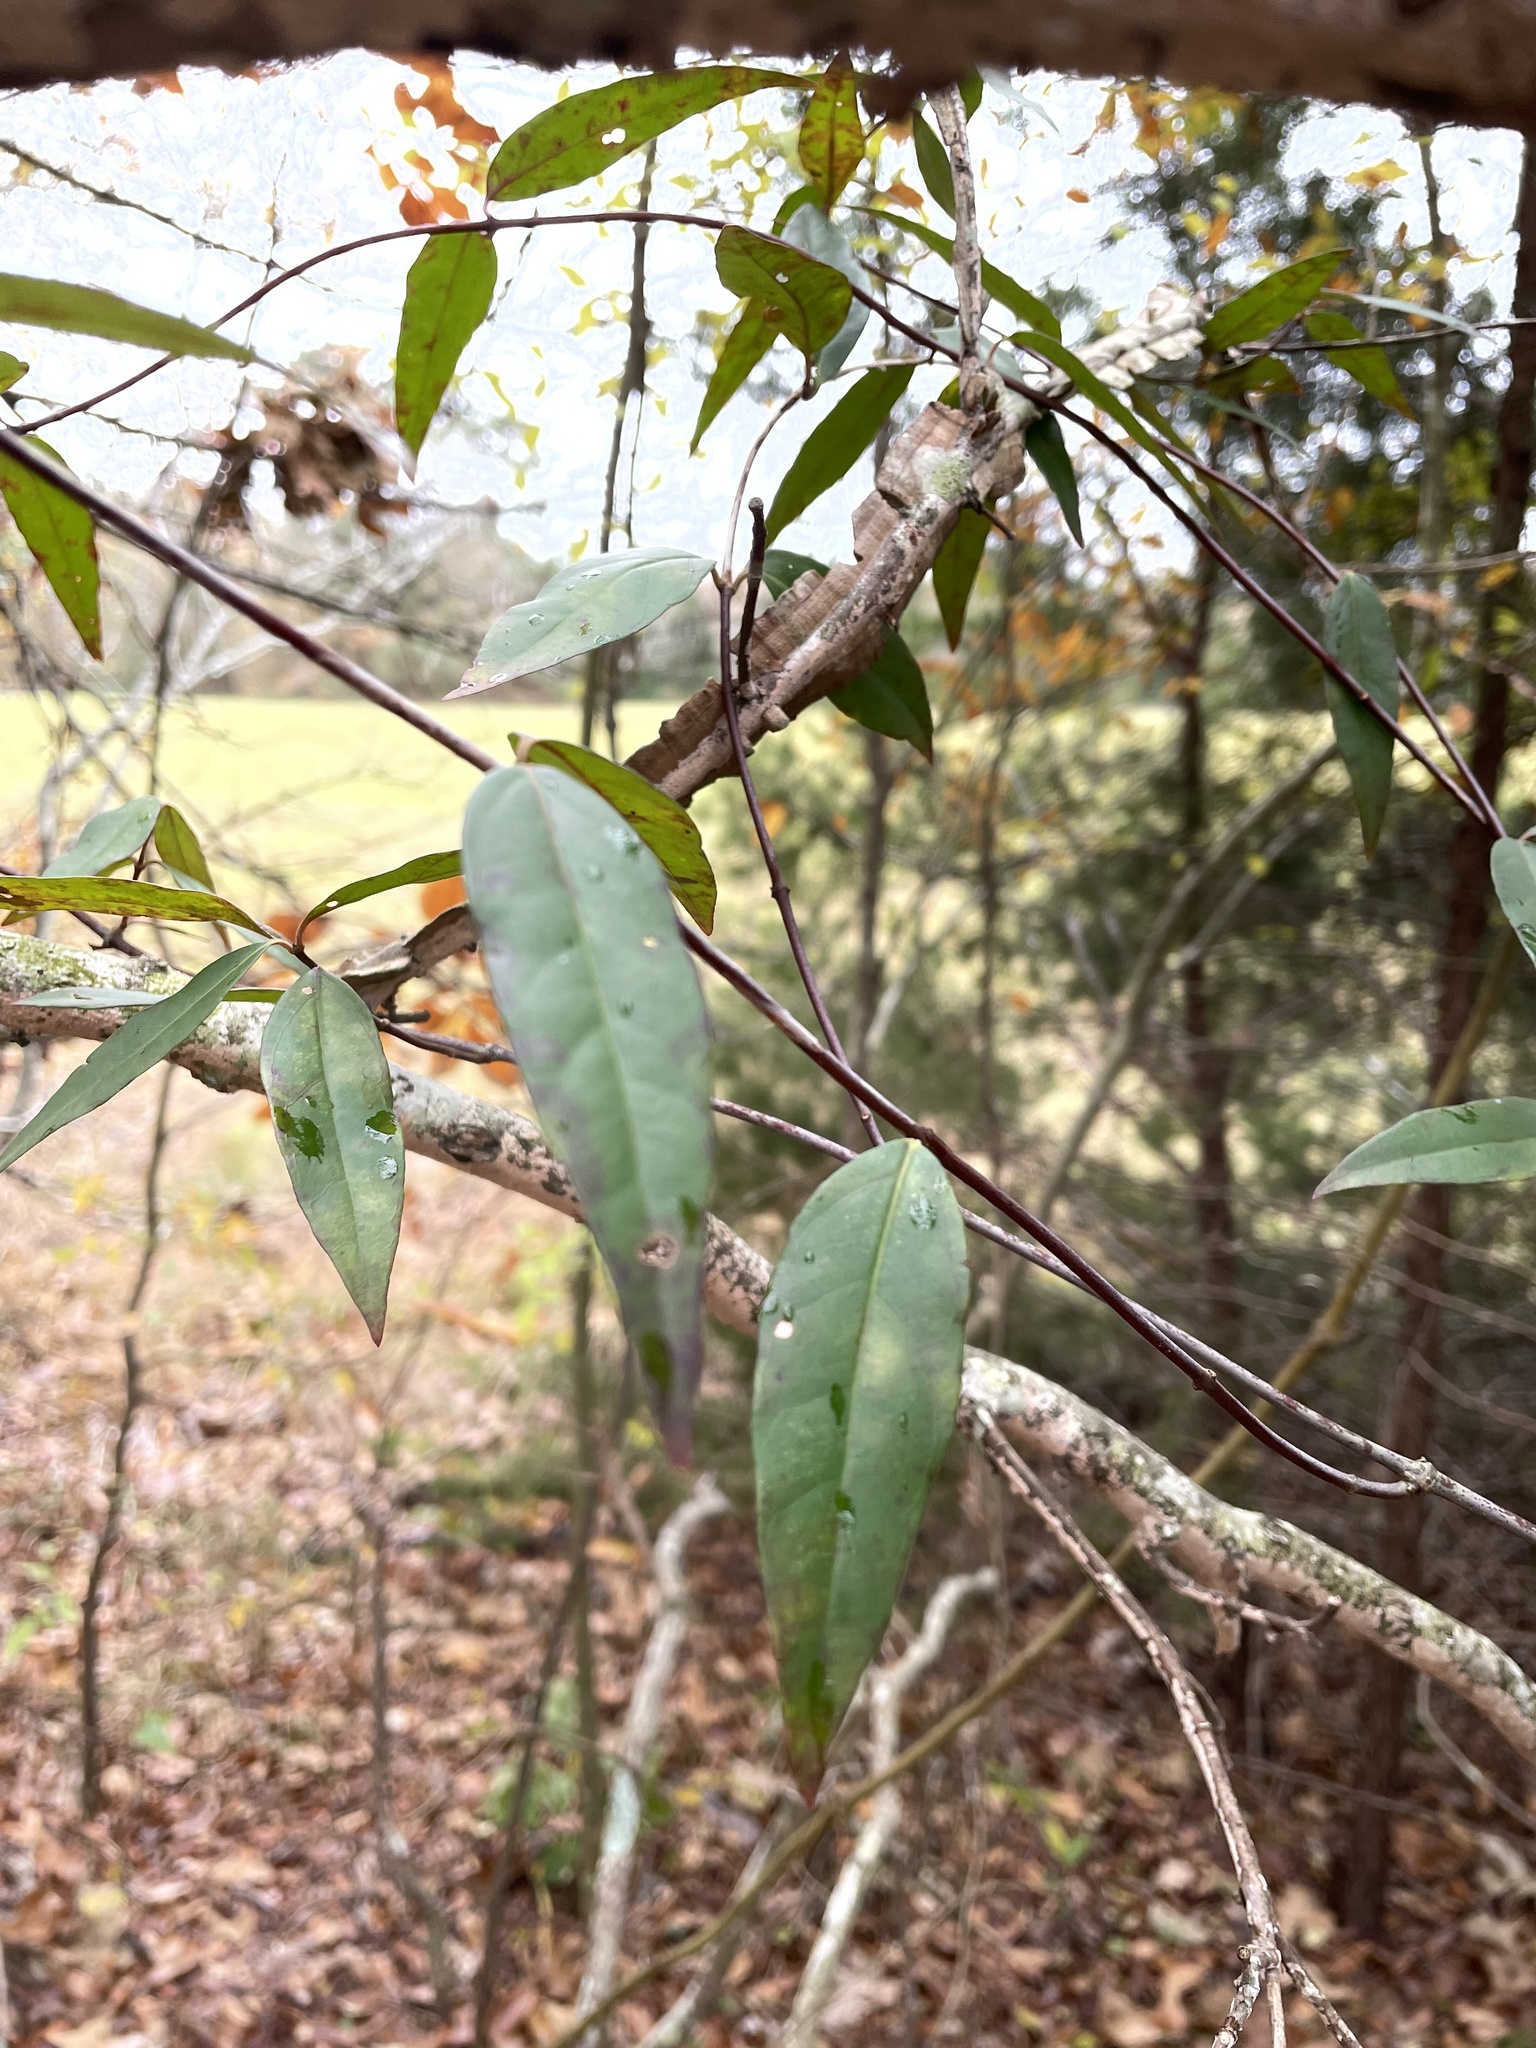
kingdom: Plantae
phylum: Tracheophyta
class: Magnoliopsida
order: Gentianales
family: Gelsemiaceae
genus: Gelsemium
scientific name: Gelsemium sempervirens
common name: Carolina-jasmine
